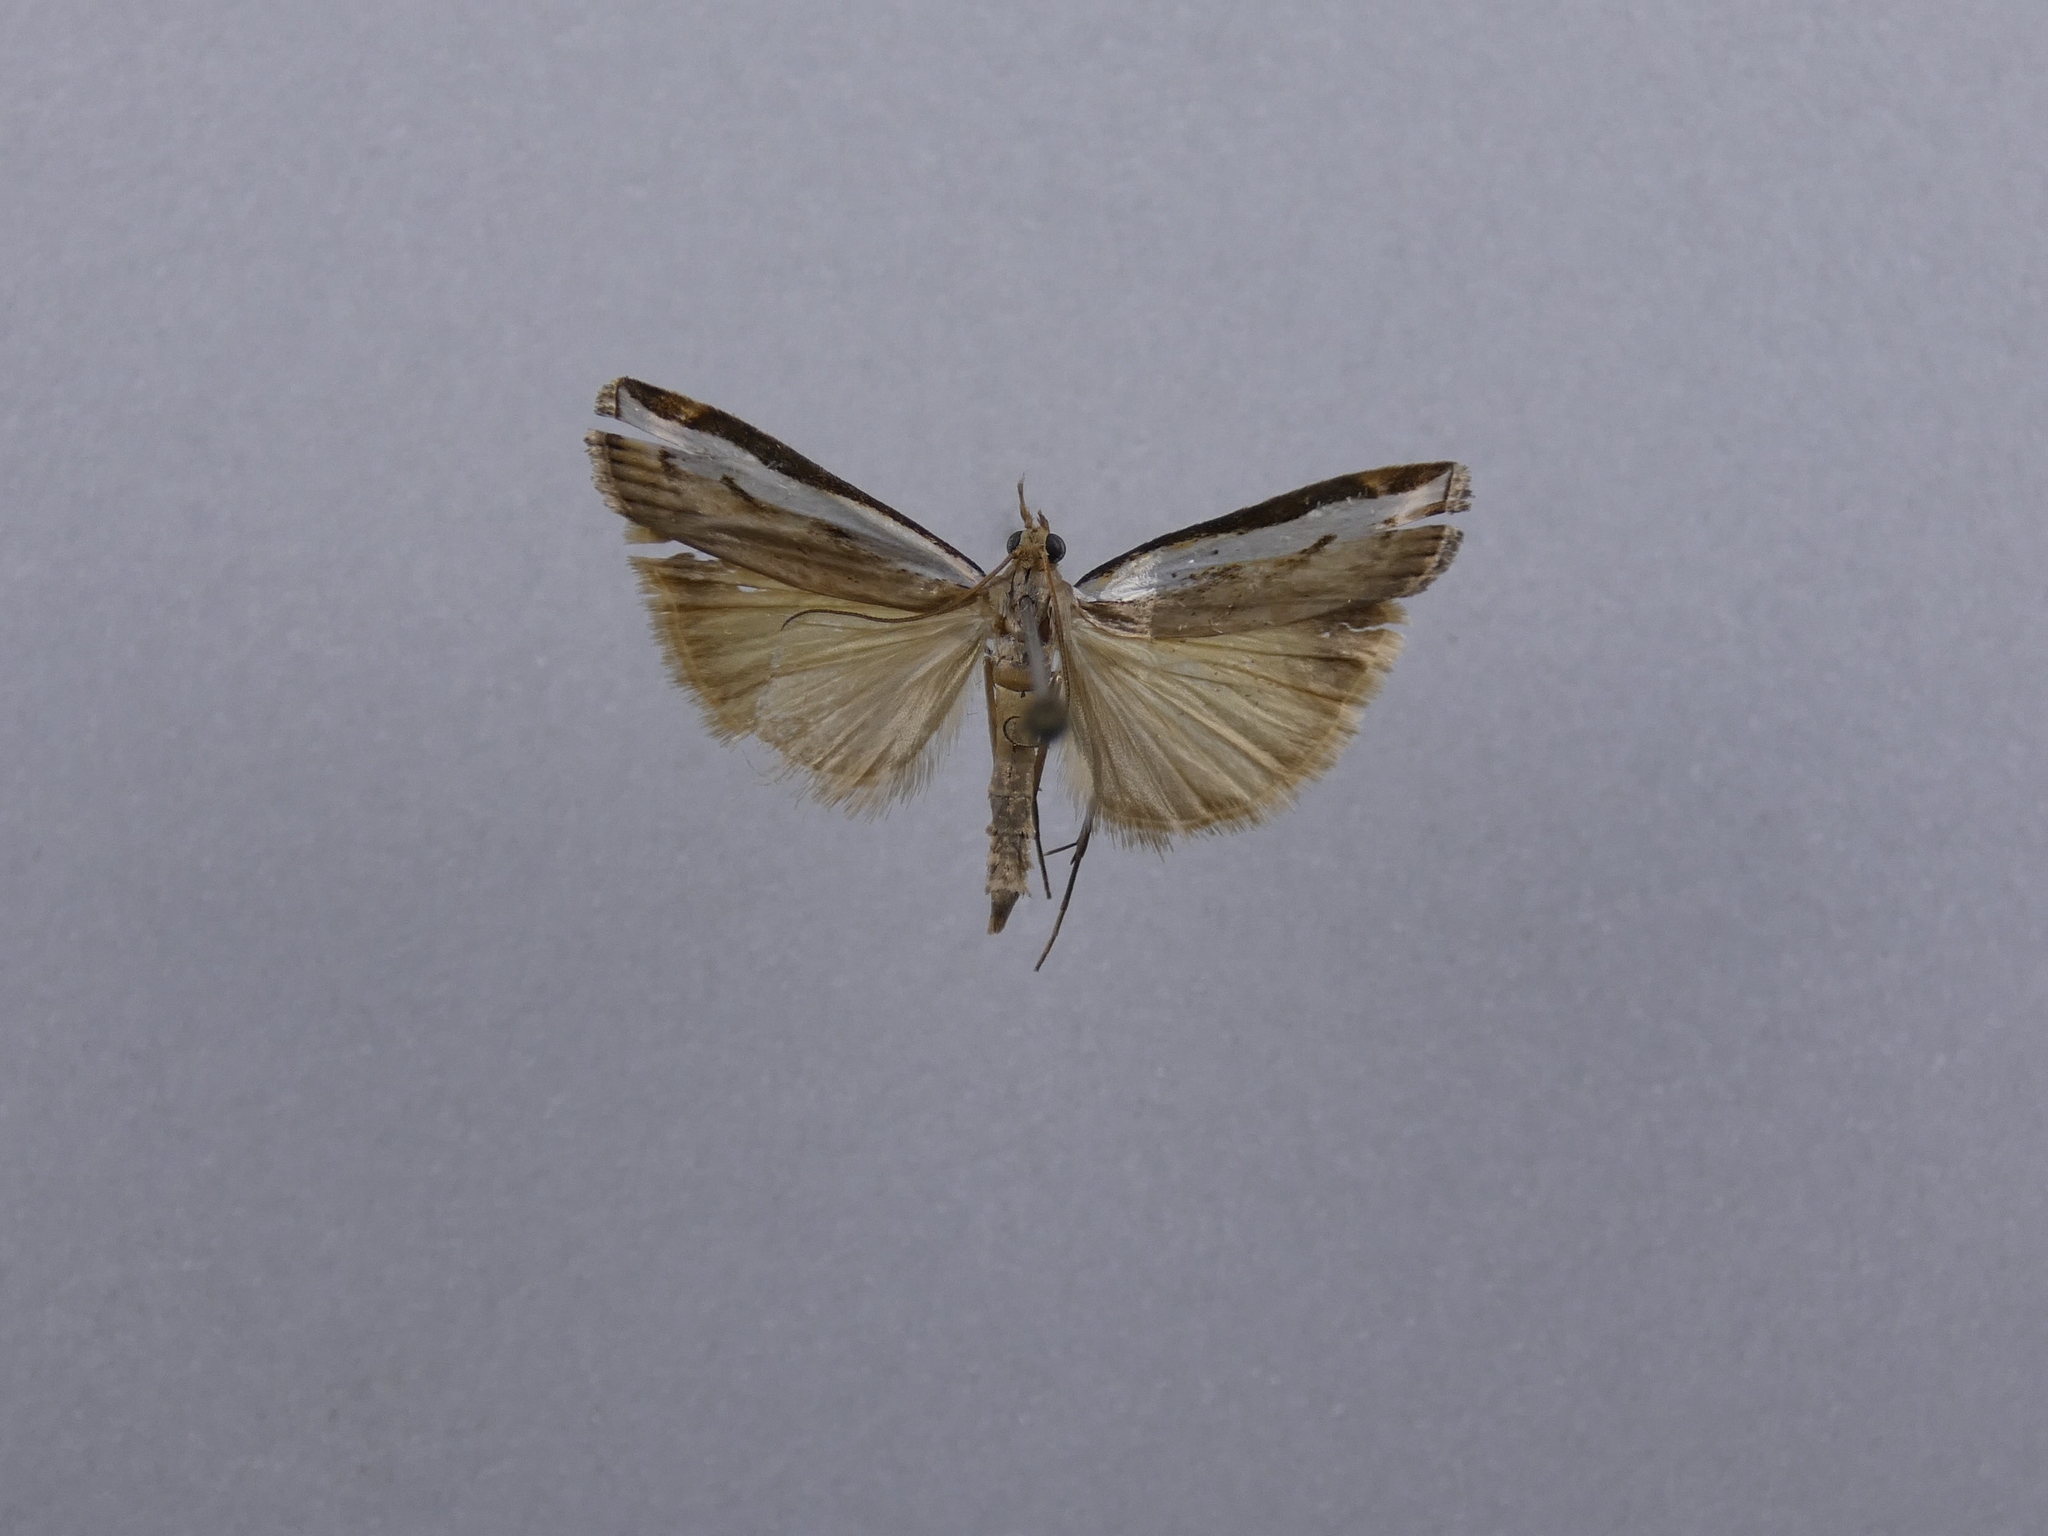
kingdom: Animalia
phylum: Arthropoda
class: Insecta
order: Lepidoptera
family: Crambidae
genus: Orocrambus
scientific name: Orocrambus flexuosellus
